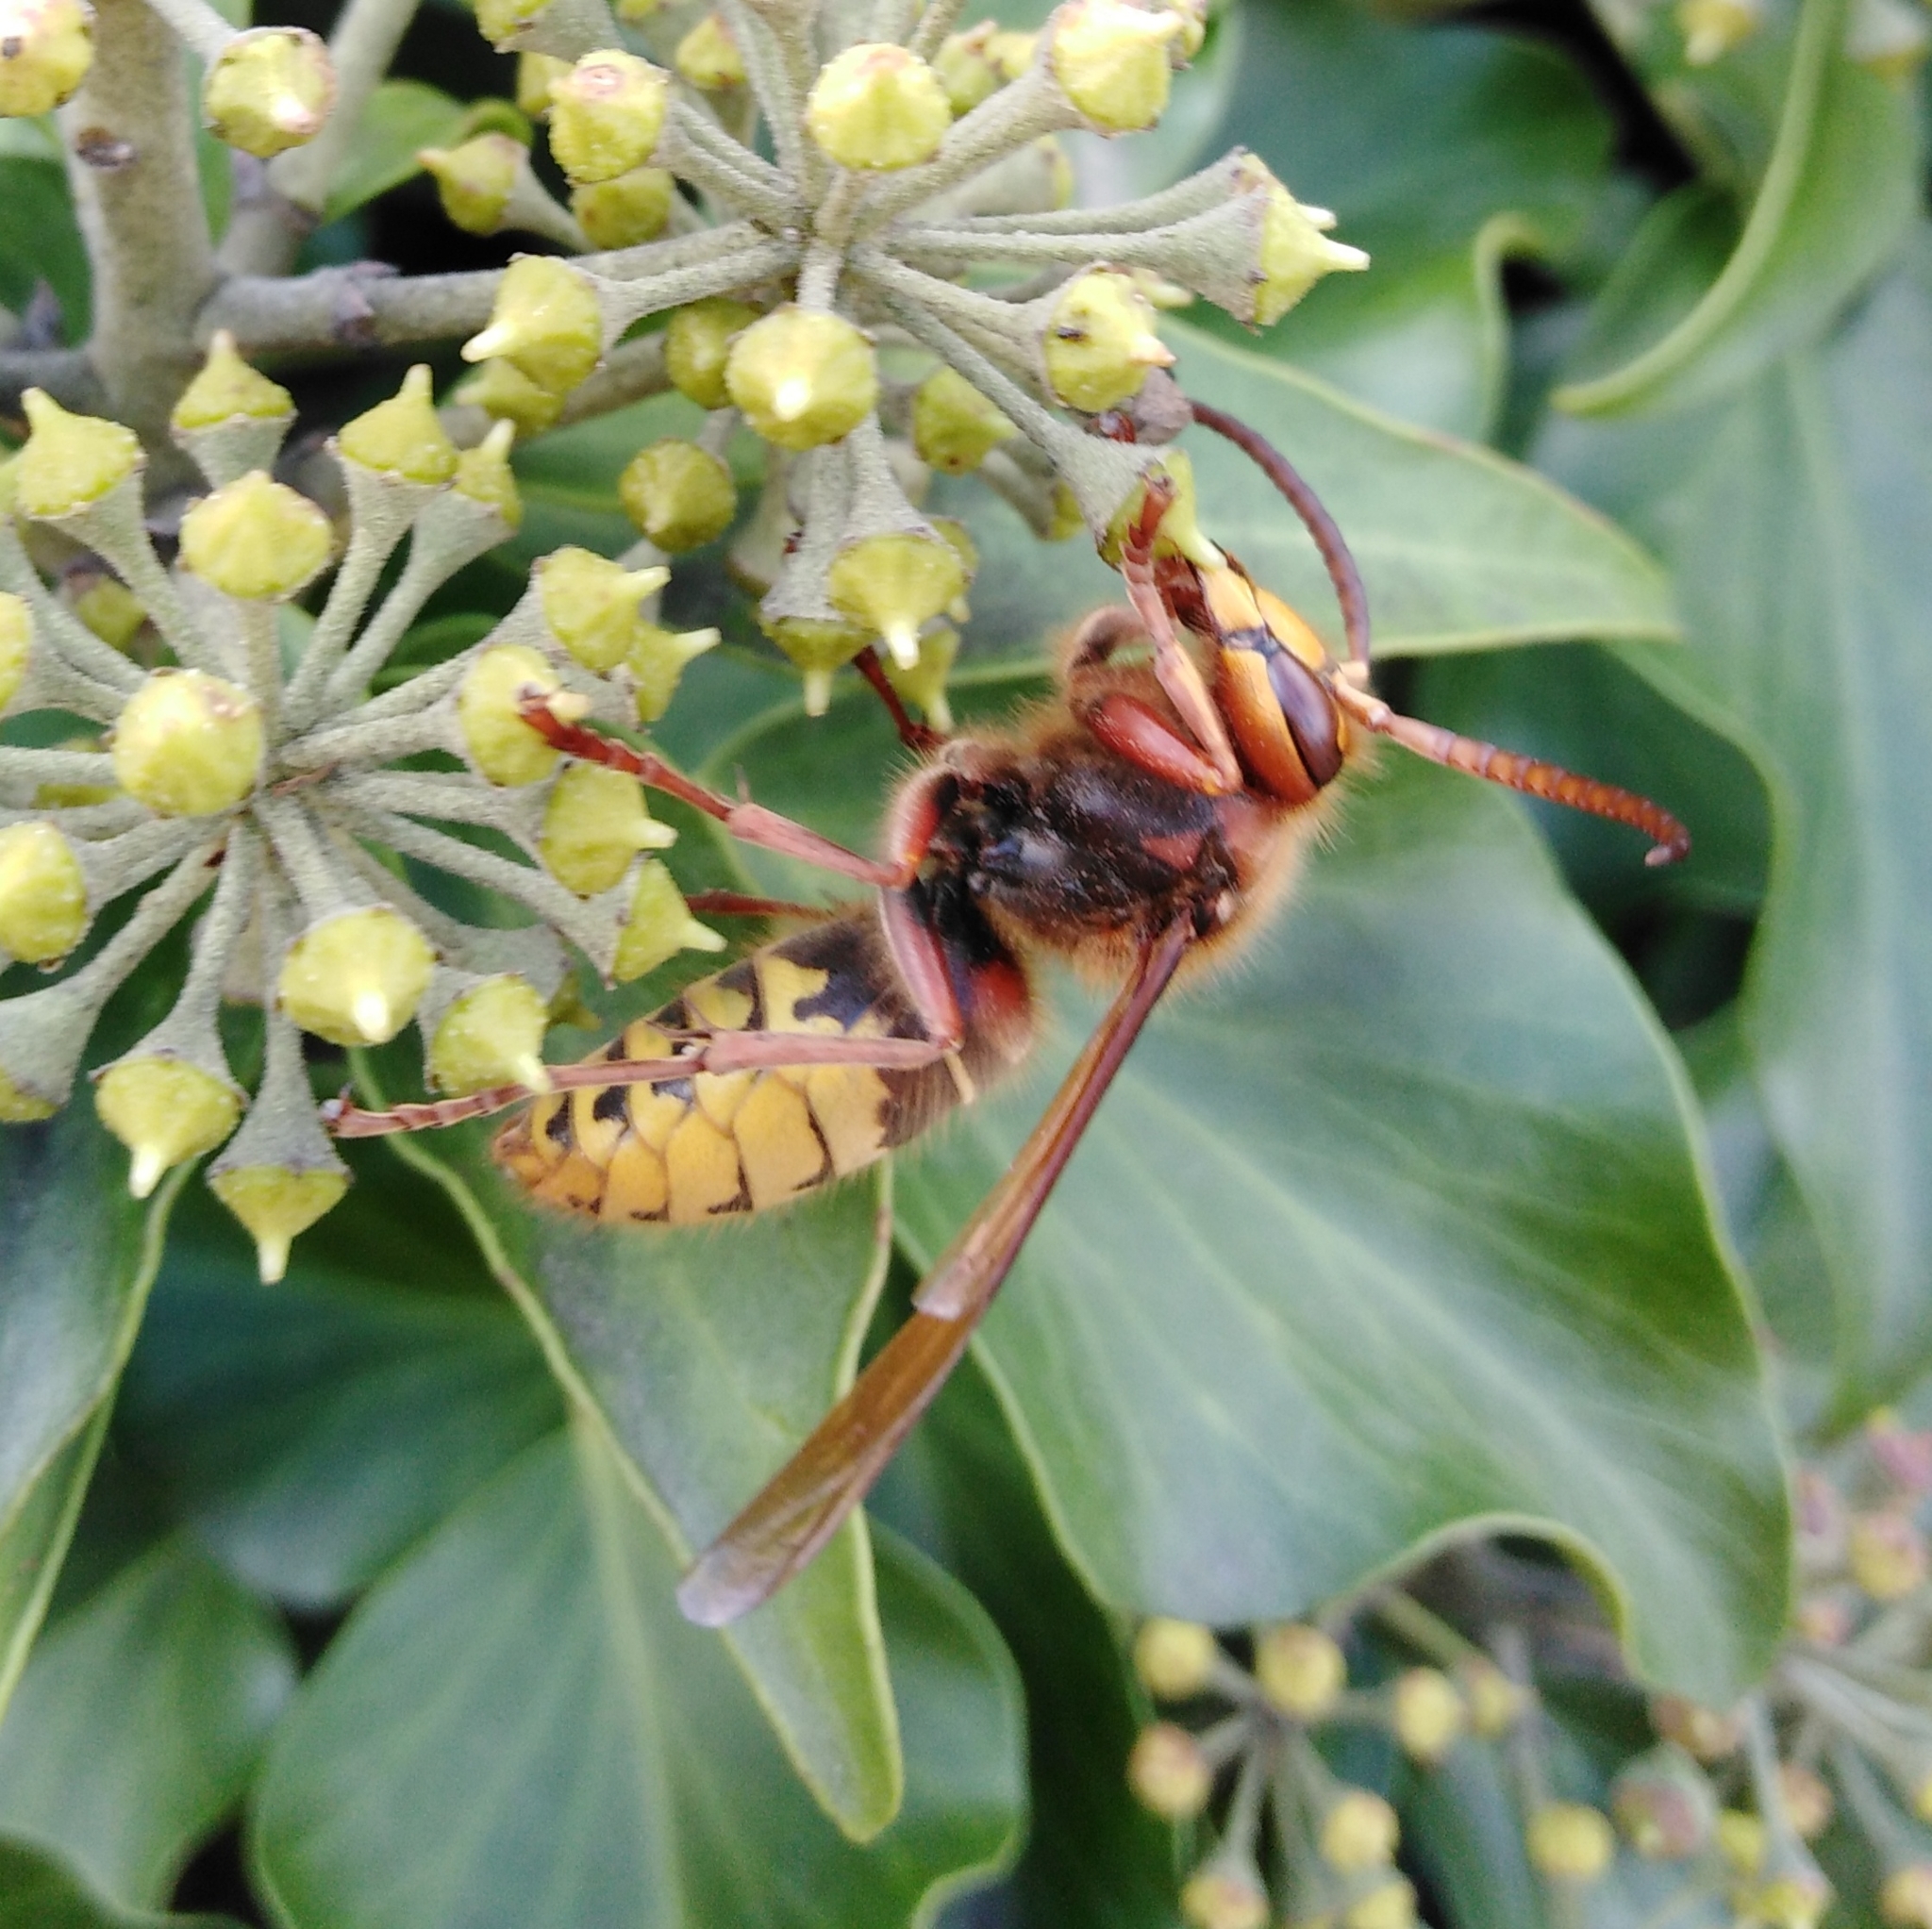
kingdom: Animalia
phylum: Arthropoda
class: Insecta
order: Hymenoptera
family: Vespidae
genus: Vespa
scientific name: Vespa crabro
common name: Hornet
